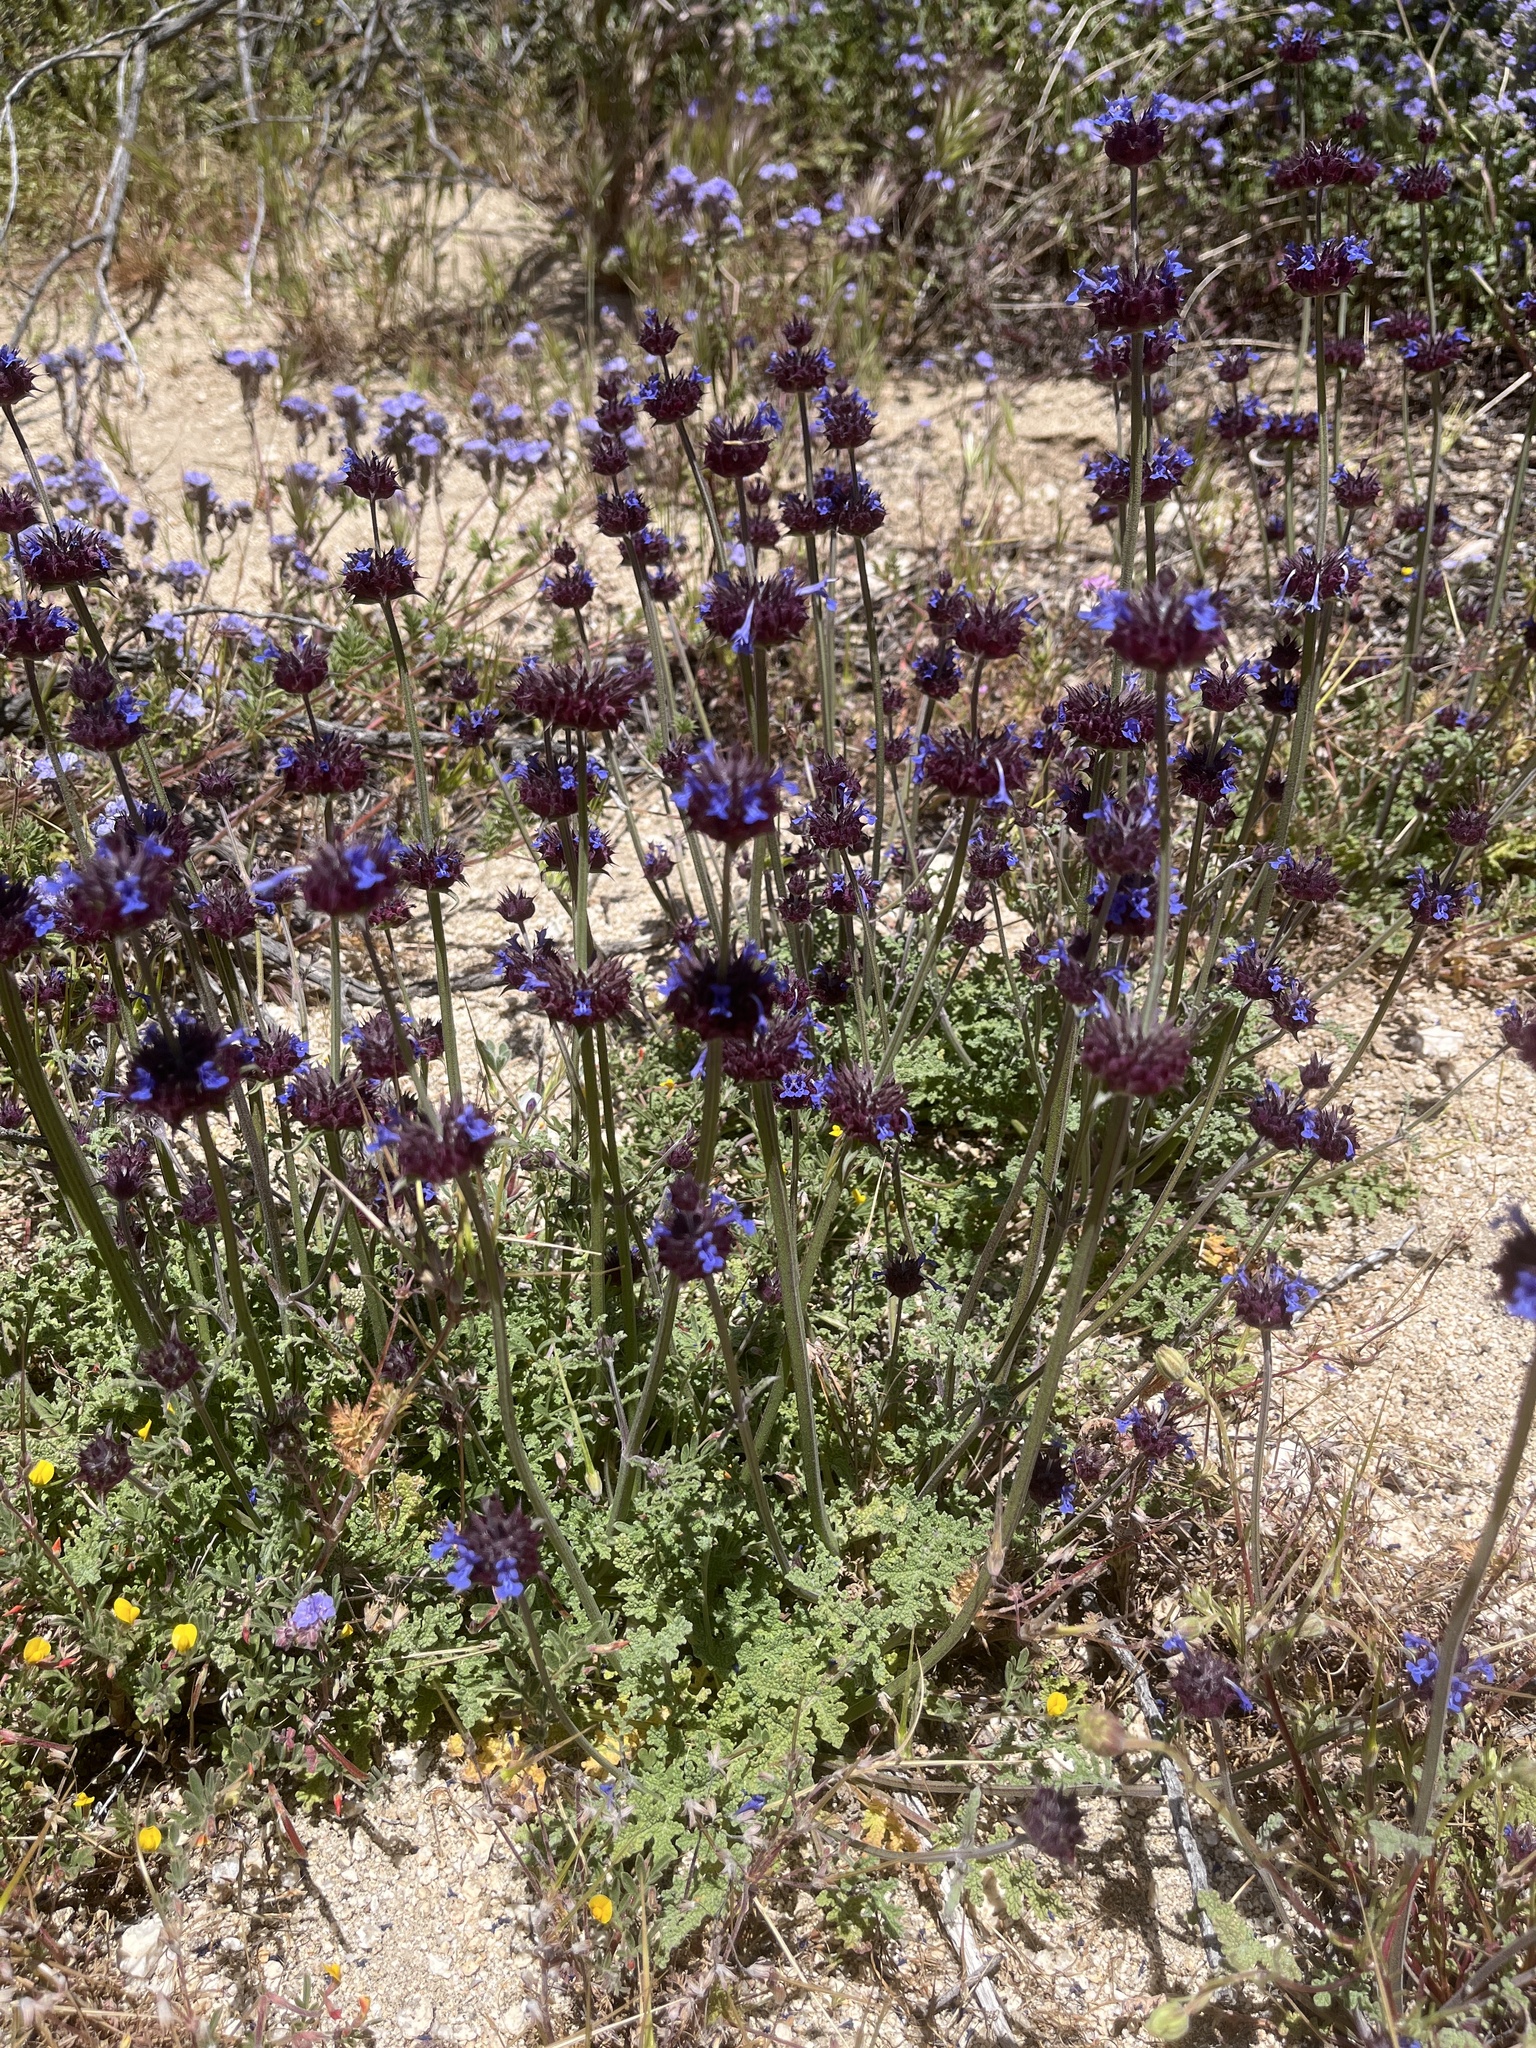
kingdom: Plantae
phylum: Tracheophyta
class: Magnoliopsida
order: Lamiales
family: Lamiaceae
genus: Salvia
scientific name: Salvia columbariae
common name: Chia
